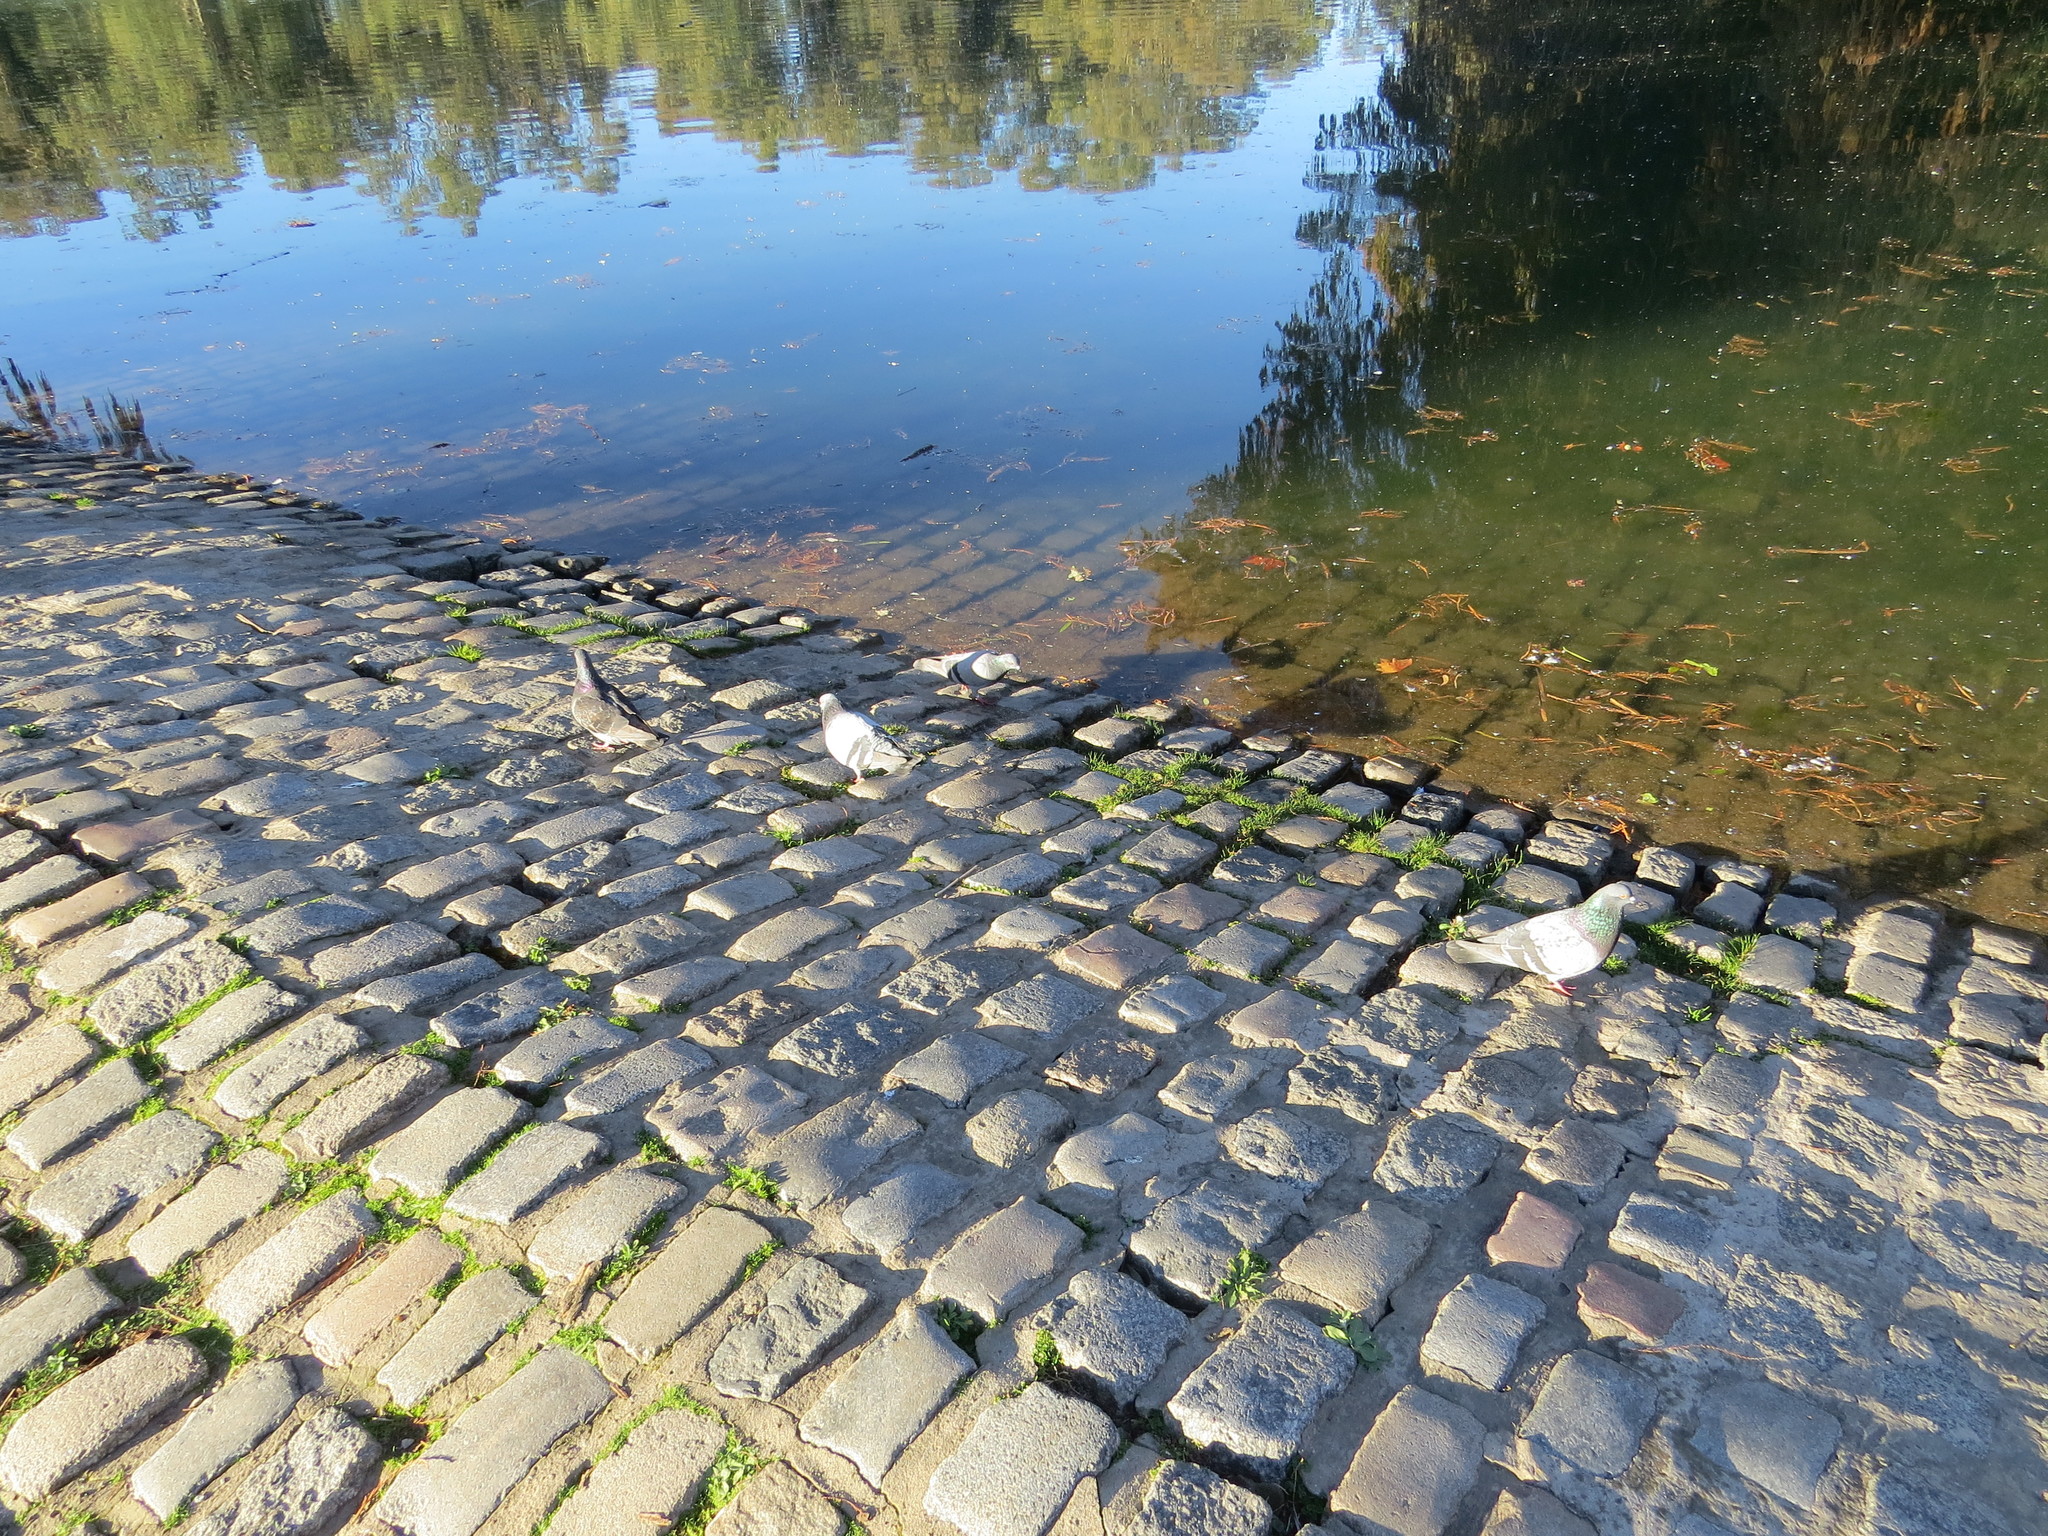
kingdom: Animalia
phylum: Chordata
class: Aves
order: Columbiformes
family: Columbidae
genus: Columba
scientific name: Columba livia
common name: Rock pigeon
